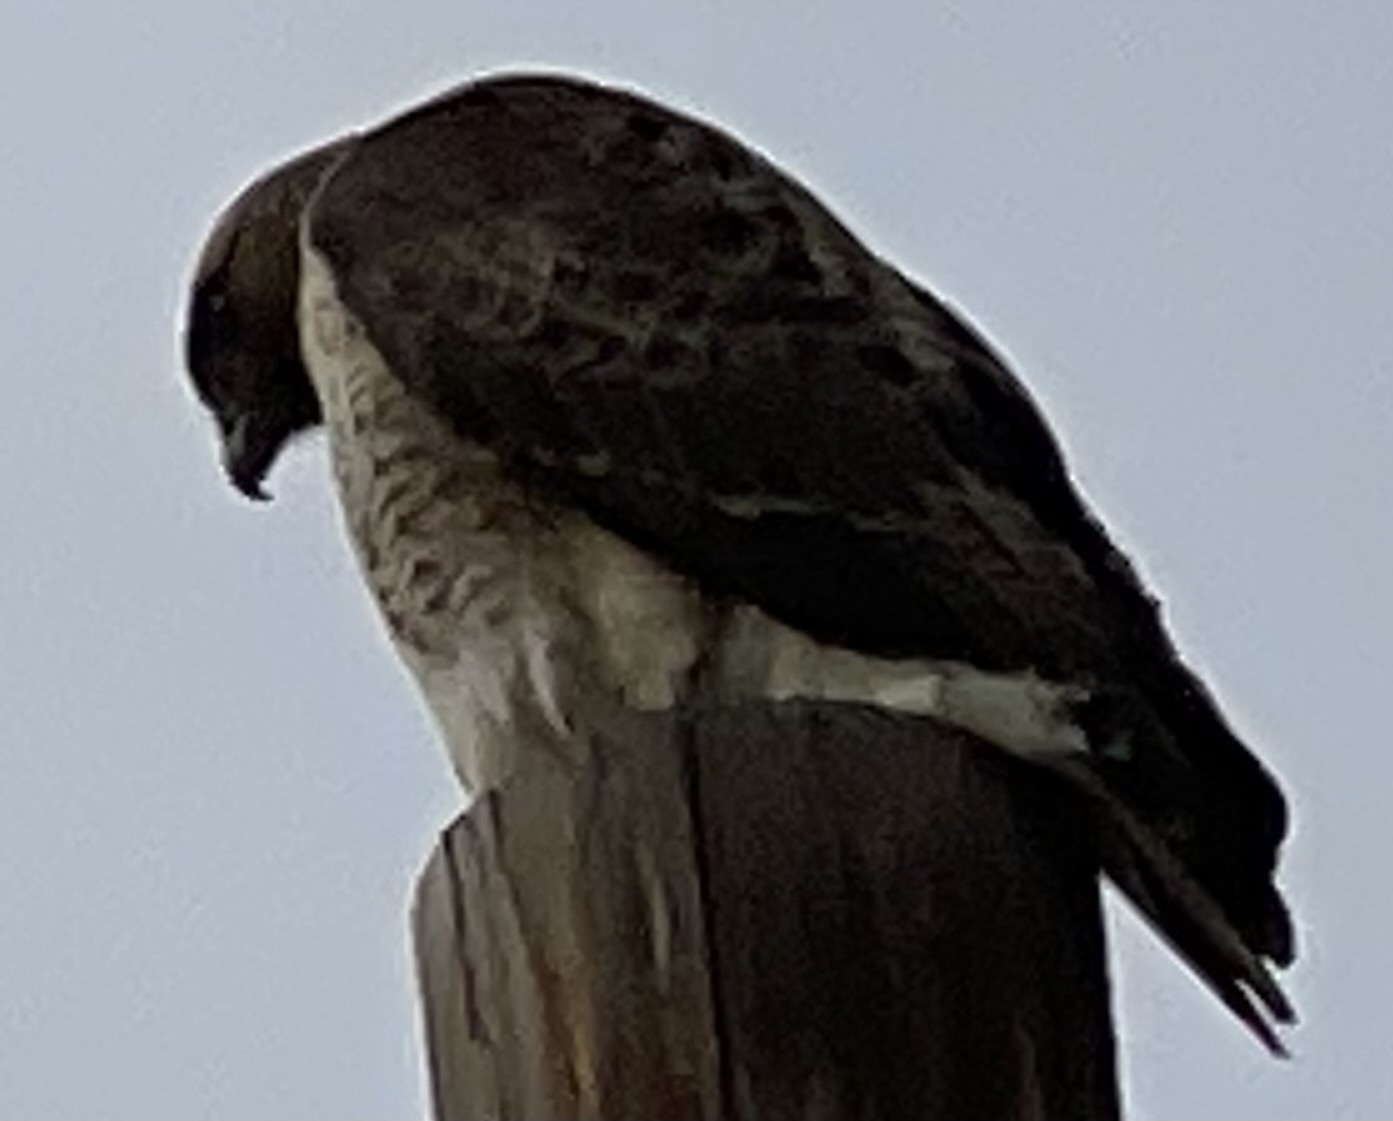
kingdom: Animalia
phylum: Chordata
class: Aves
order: Accipitriformes
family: Accipitridae
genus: Buteo
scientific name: Buteo jamaicensis
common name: Red-tailed hawk
